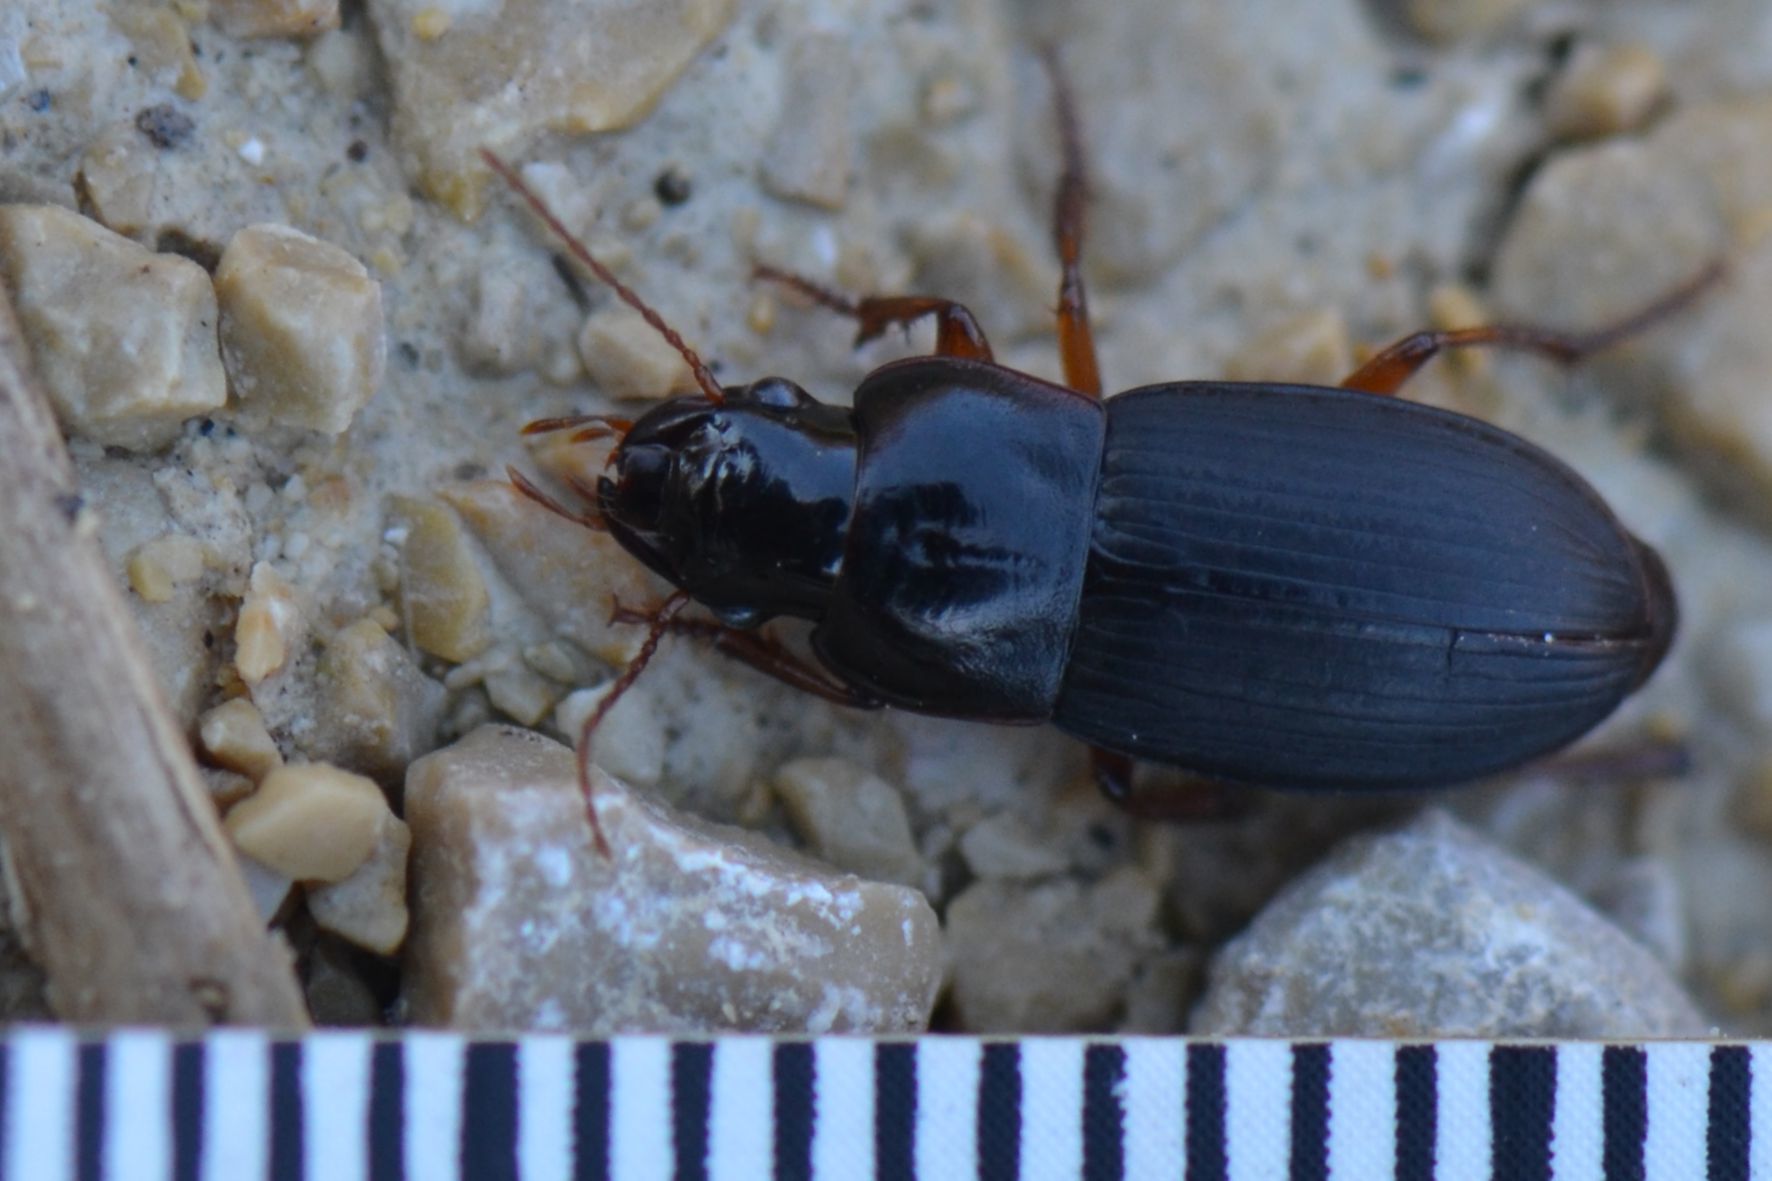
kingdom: Animalia
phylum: Arthropoda
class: Insecta
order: Coleoptera
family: Carabidae
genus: Harpalus
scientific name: Harpalus rubripes
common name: Red-legged harp ground beetle
